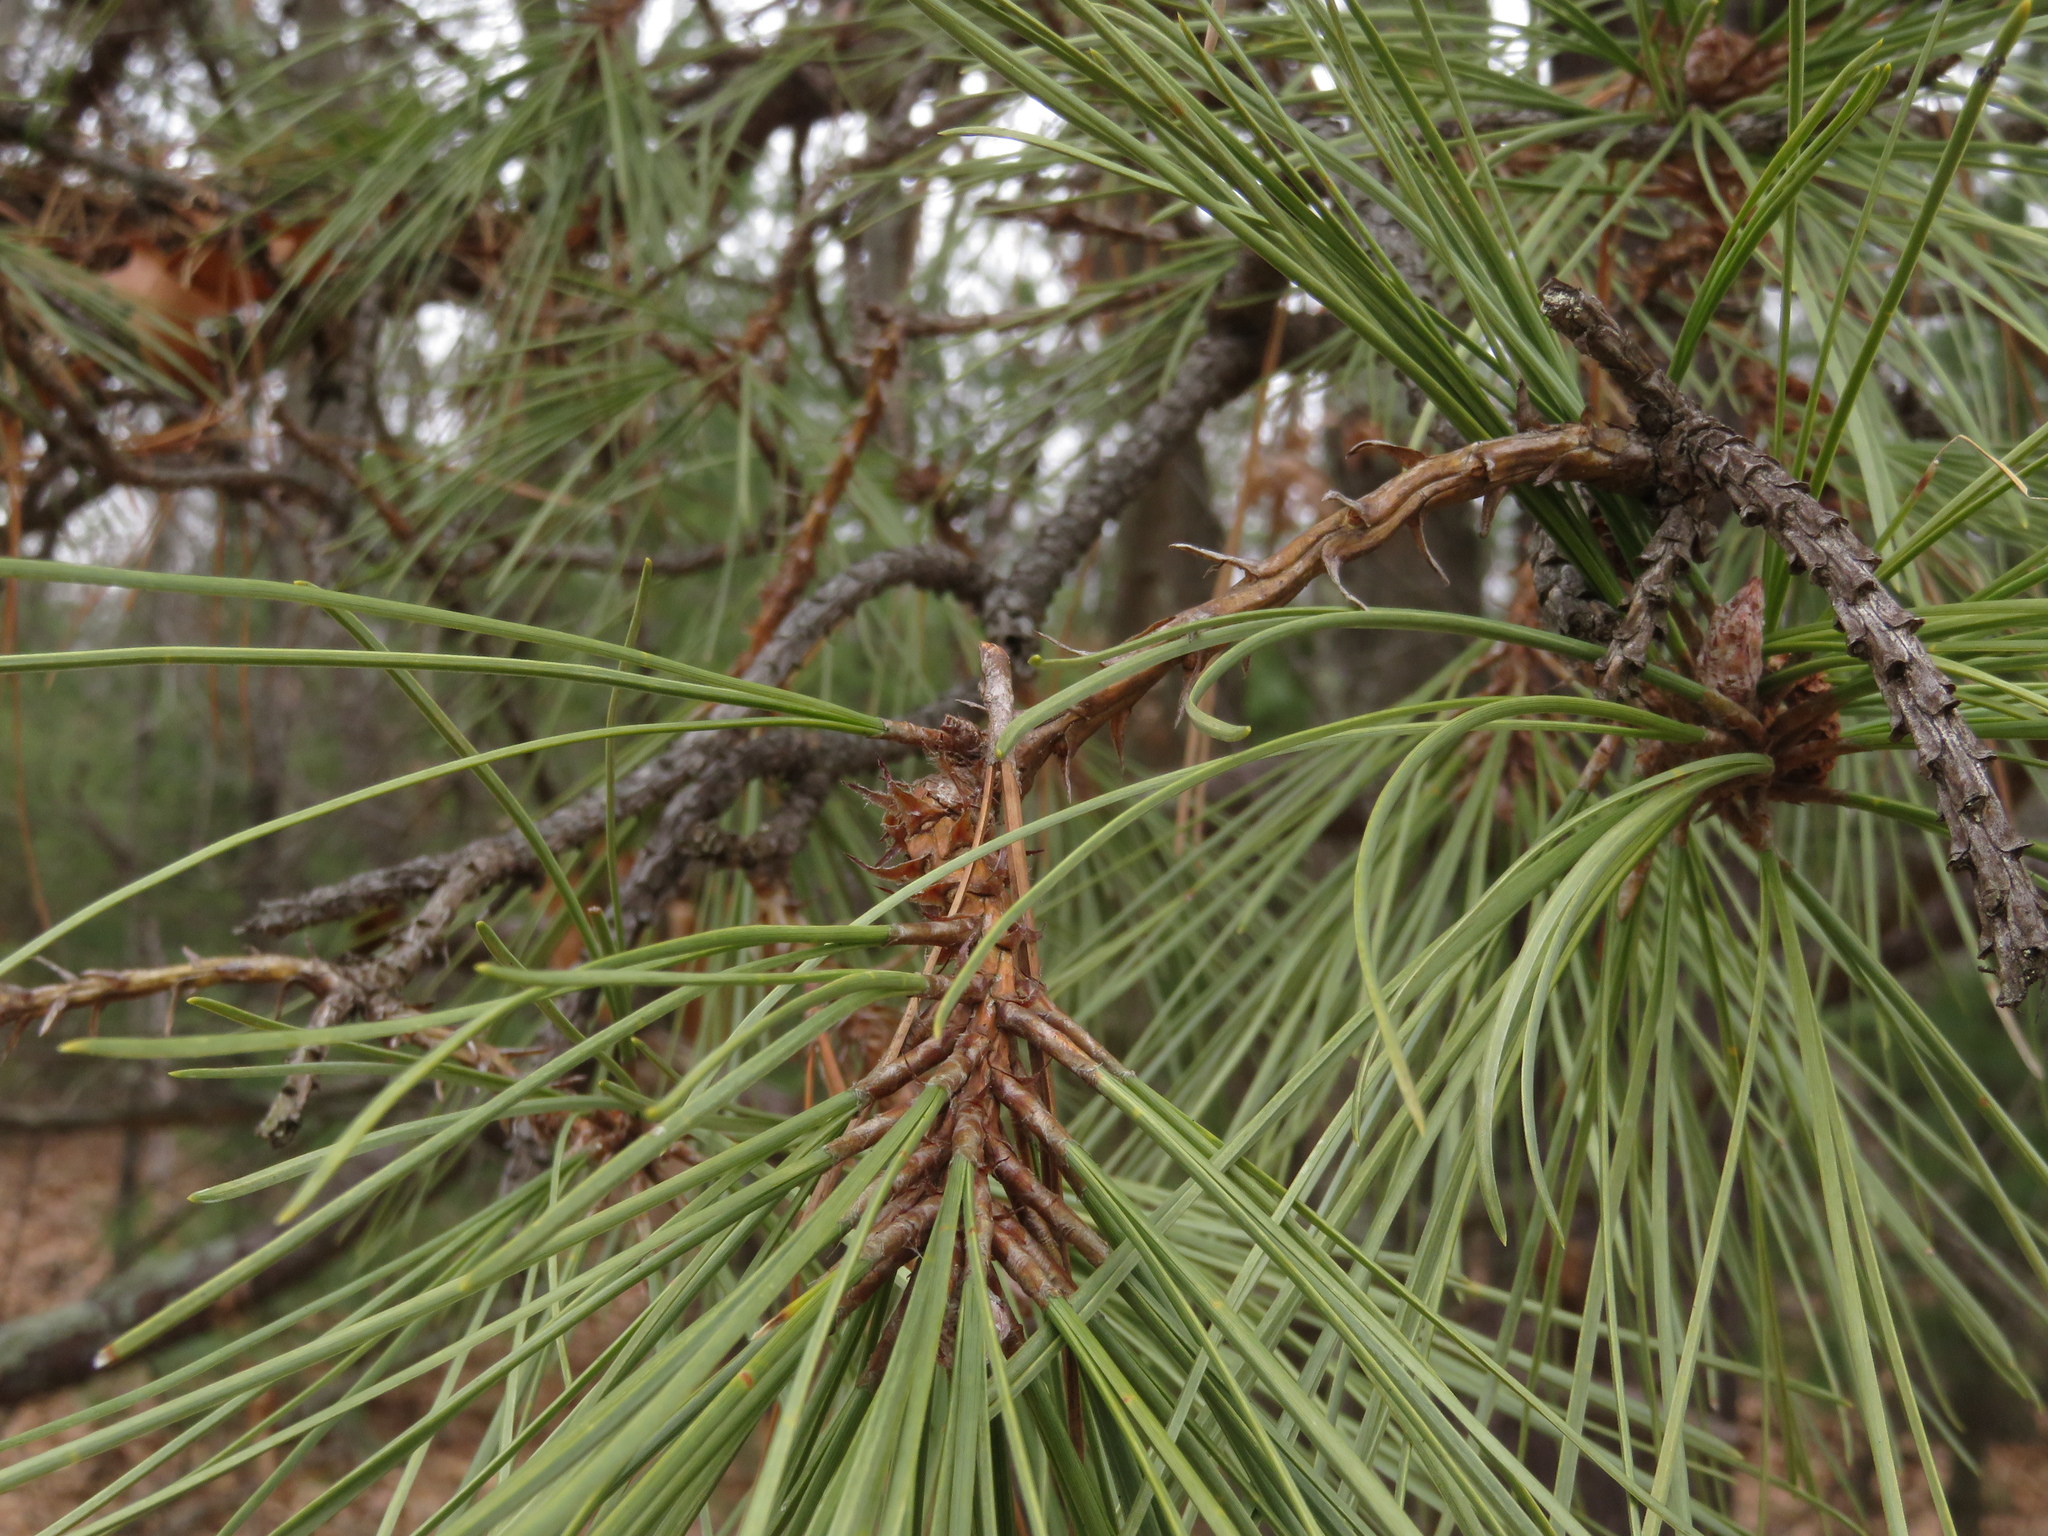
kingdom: Plantae
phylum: Tracheophyta
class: Pinopsida
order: Pinales
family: Pinaceae
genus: Pinus
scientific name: Pinus rigida
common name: Pitch pine
